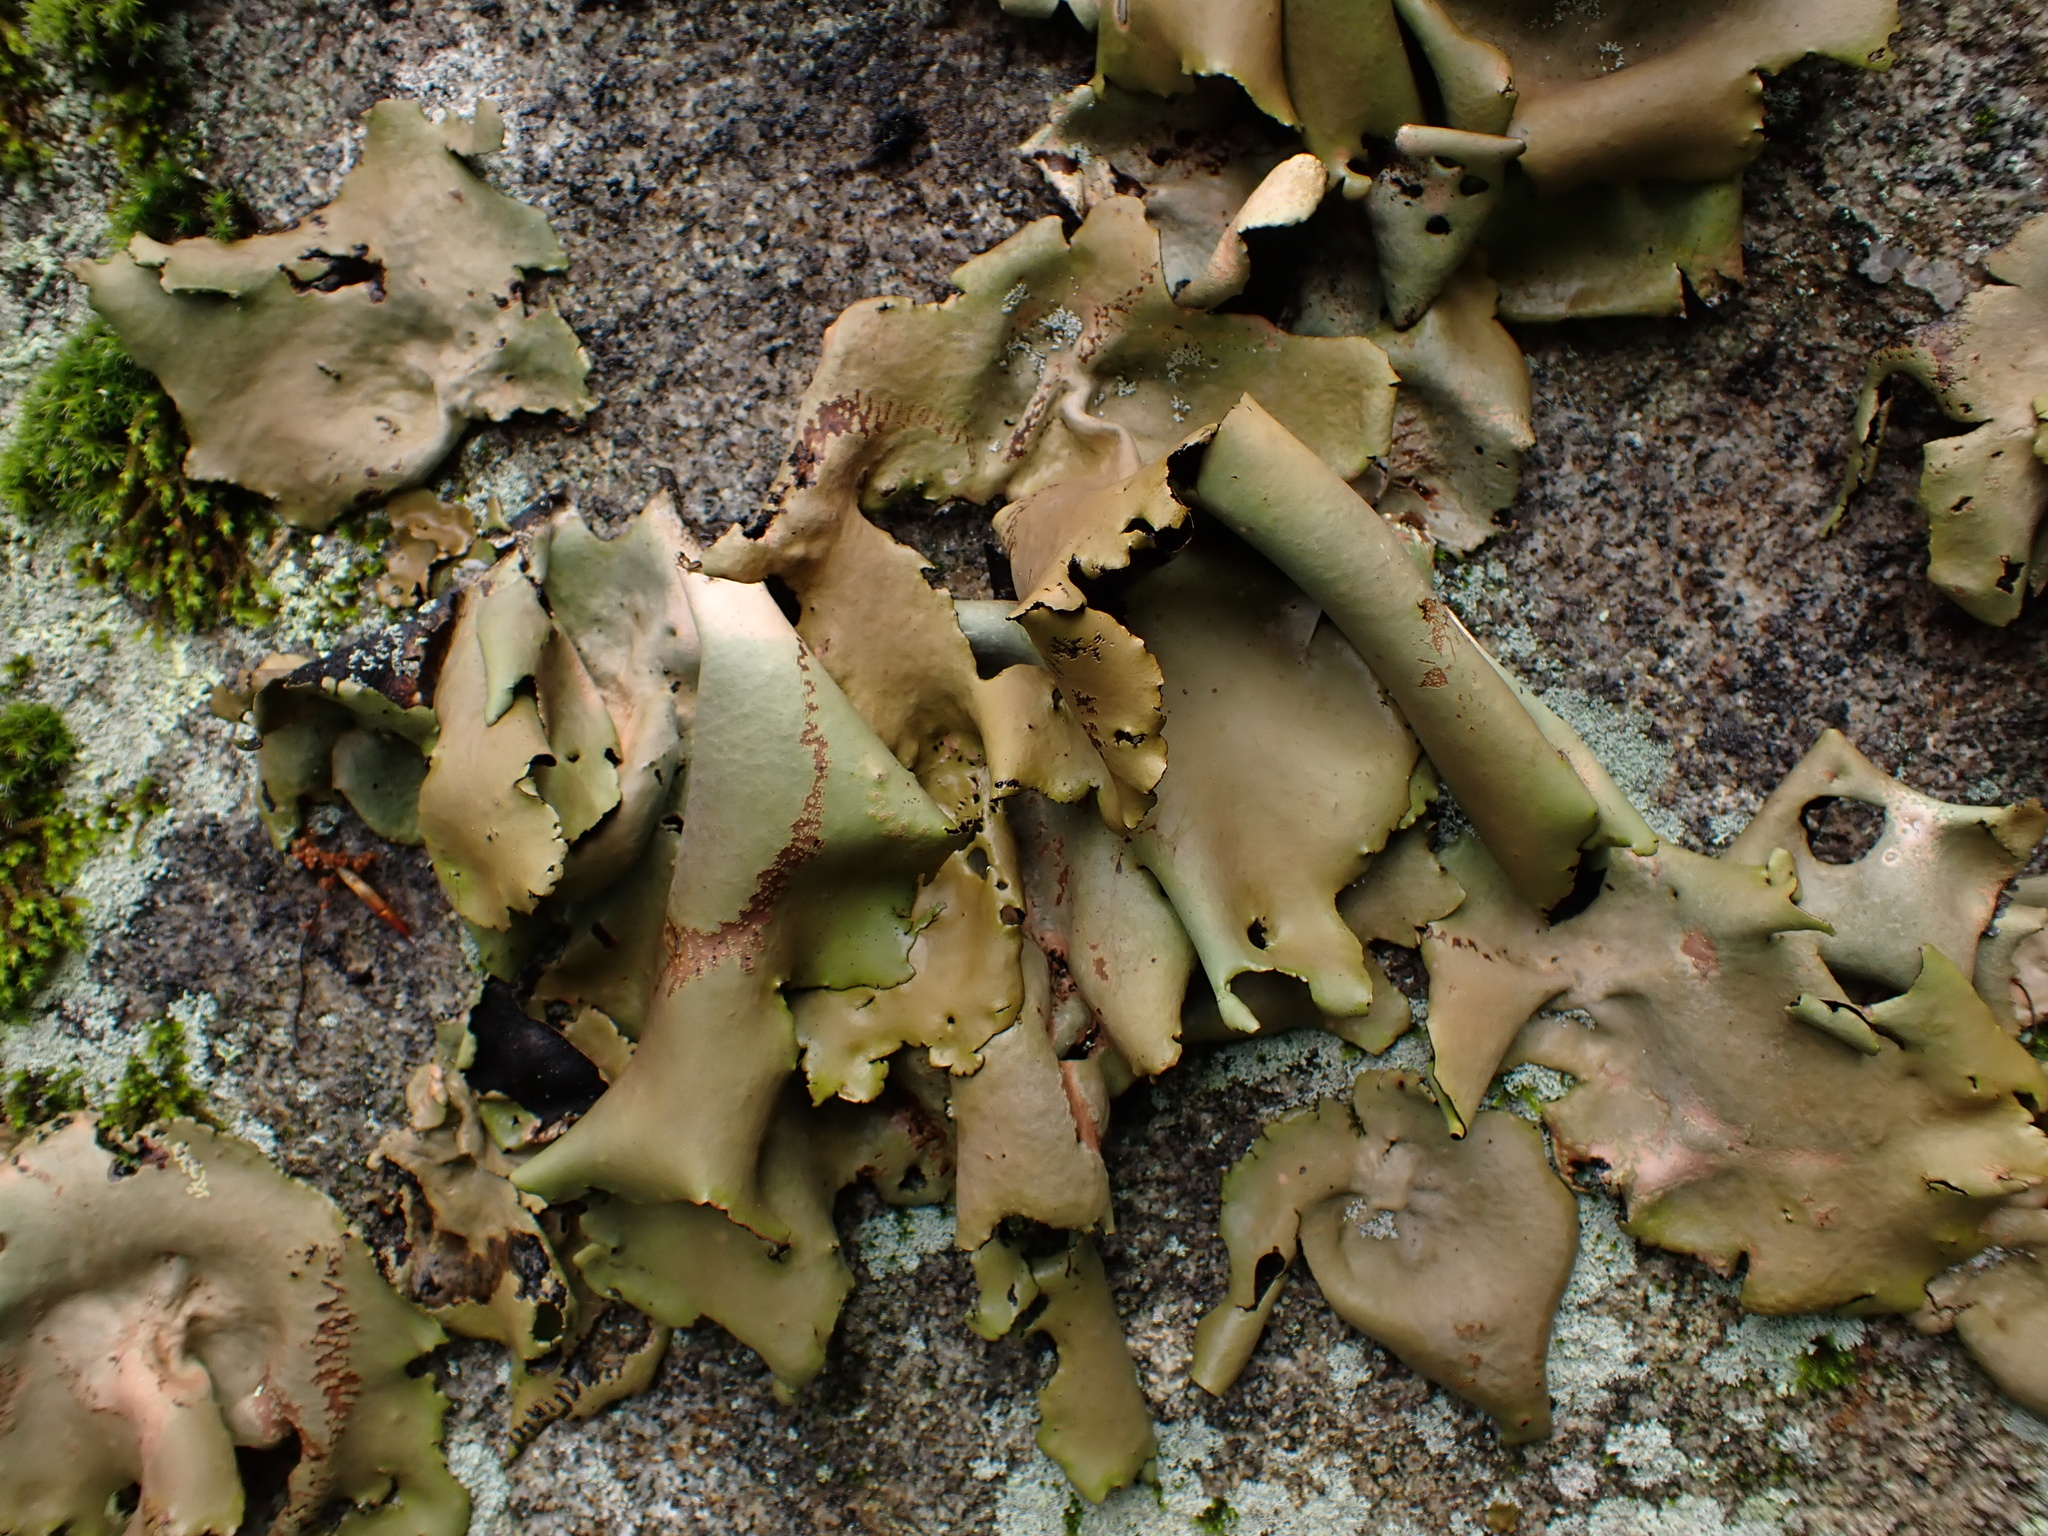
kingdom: Fungi
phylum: Ascomycota
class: Lecanoromycetes
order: Umbilicariales
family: Umbilicariaceae
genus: Umbilicaria
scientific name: Umbilicaria mammulata
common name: Smooth rock tripe
